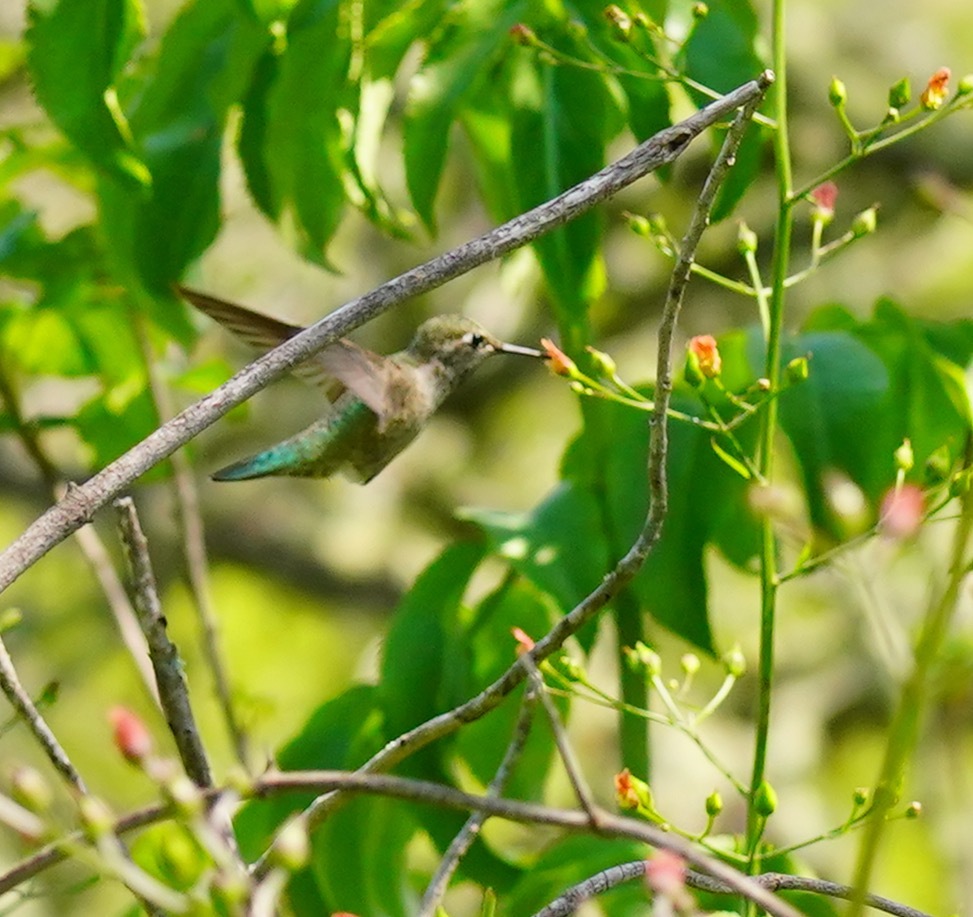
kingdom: Animalia
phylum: Chordata
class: Aves
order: Apodiformes
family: Trochilidae
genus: Calypte
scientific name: Calypte anna
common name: Anna's hummingbird
